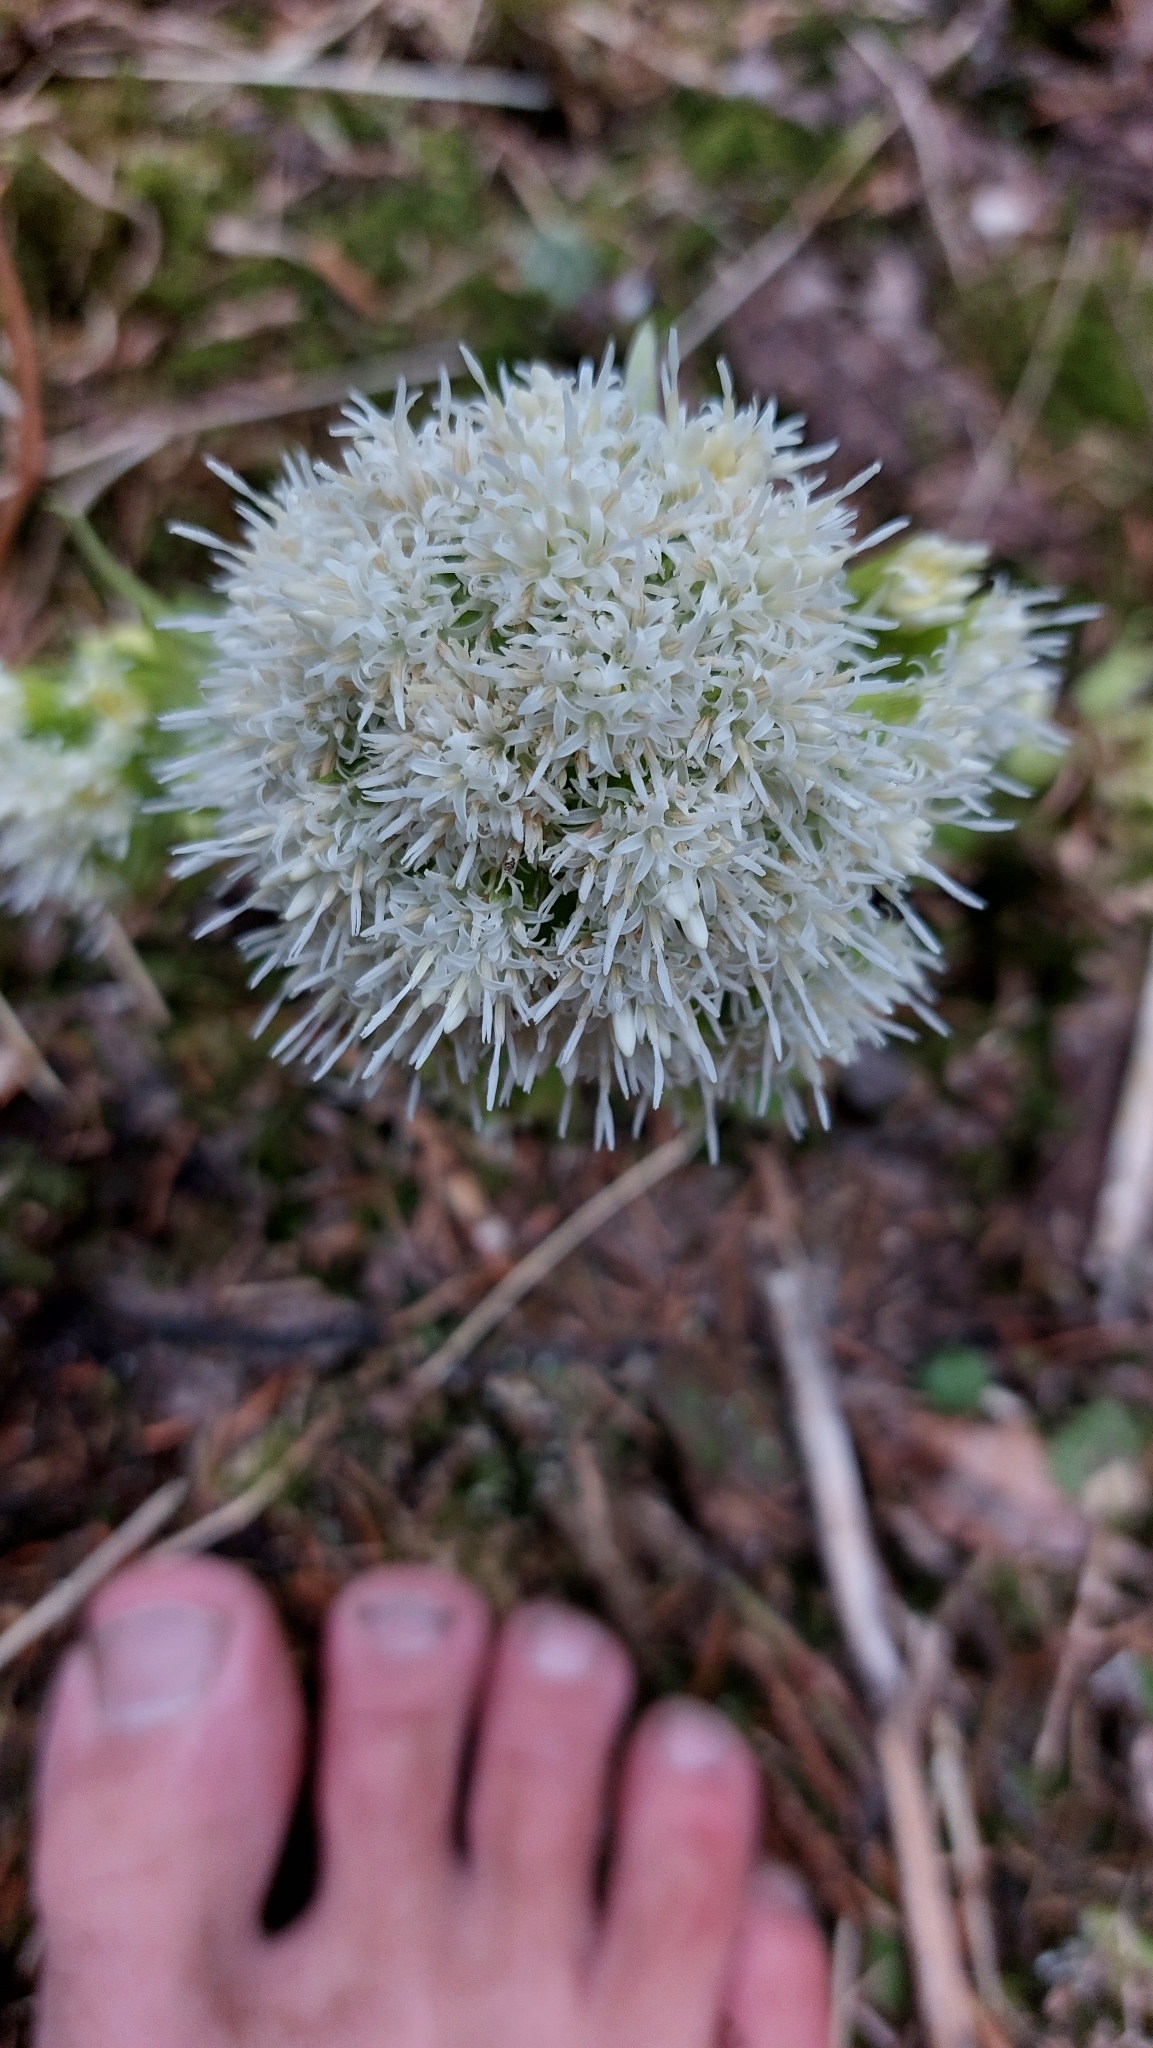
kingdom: Plantae
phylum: Tracheophyta
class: Magnoliopsida
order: Asterales
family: Asteraceae
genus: Petasites
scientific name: Petasites albus
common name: White butterbur
